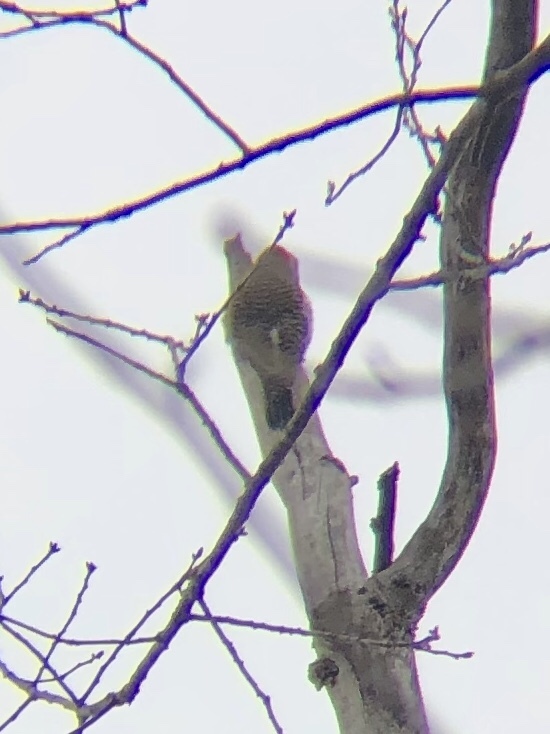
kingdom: Animalia
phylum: Chordata
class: Aves
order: Piciformes
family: Picidae
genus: Colaptes
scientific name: Colaptes auratus
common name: Northern flicker
